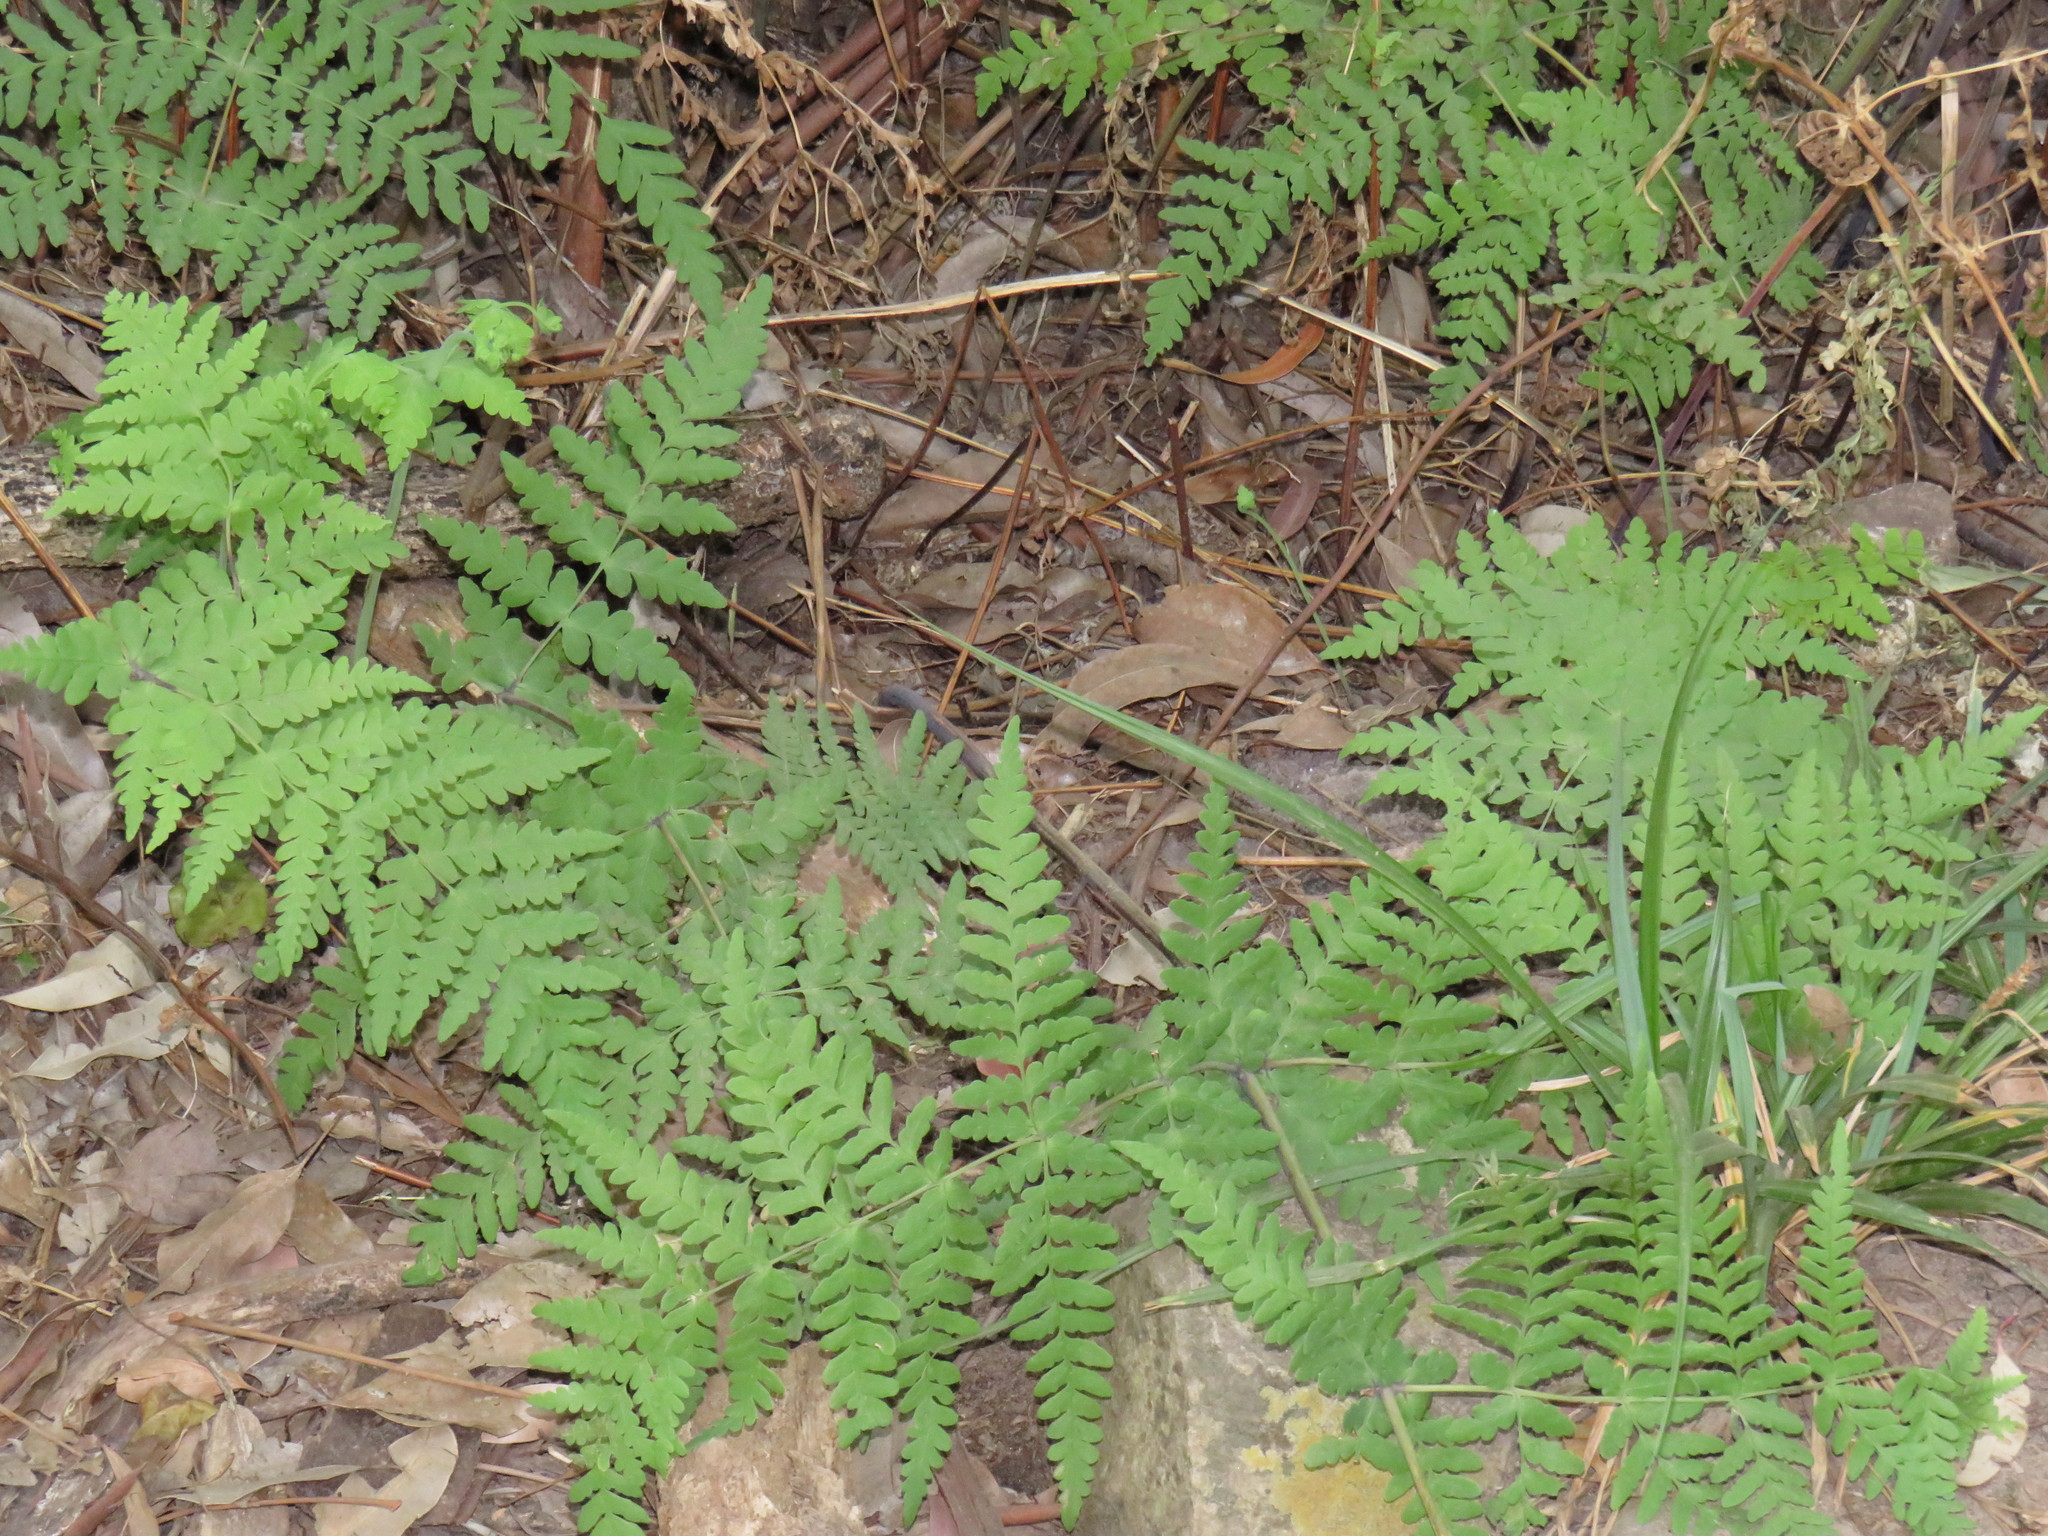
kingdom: Plantae
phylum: Tracheophyta
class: Polypodiopsida
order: Polypodiales
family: Dennstaedtiaceae
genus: Histiopteris
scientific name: Histiopteris incisa
